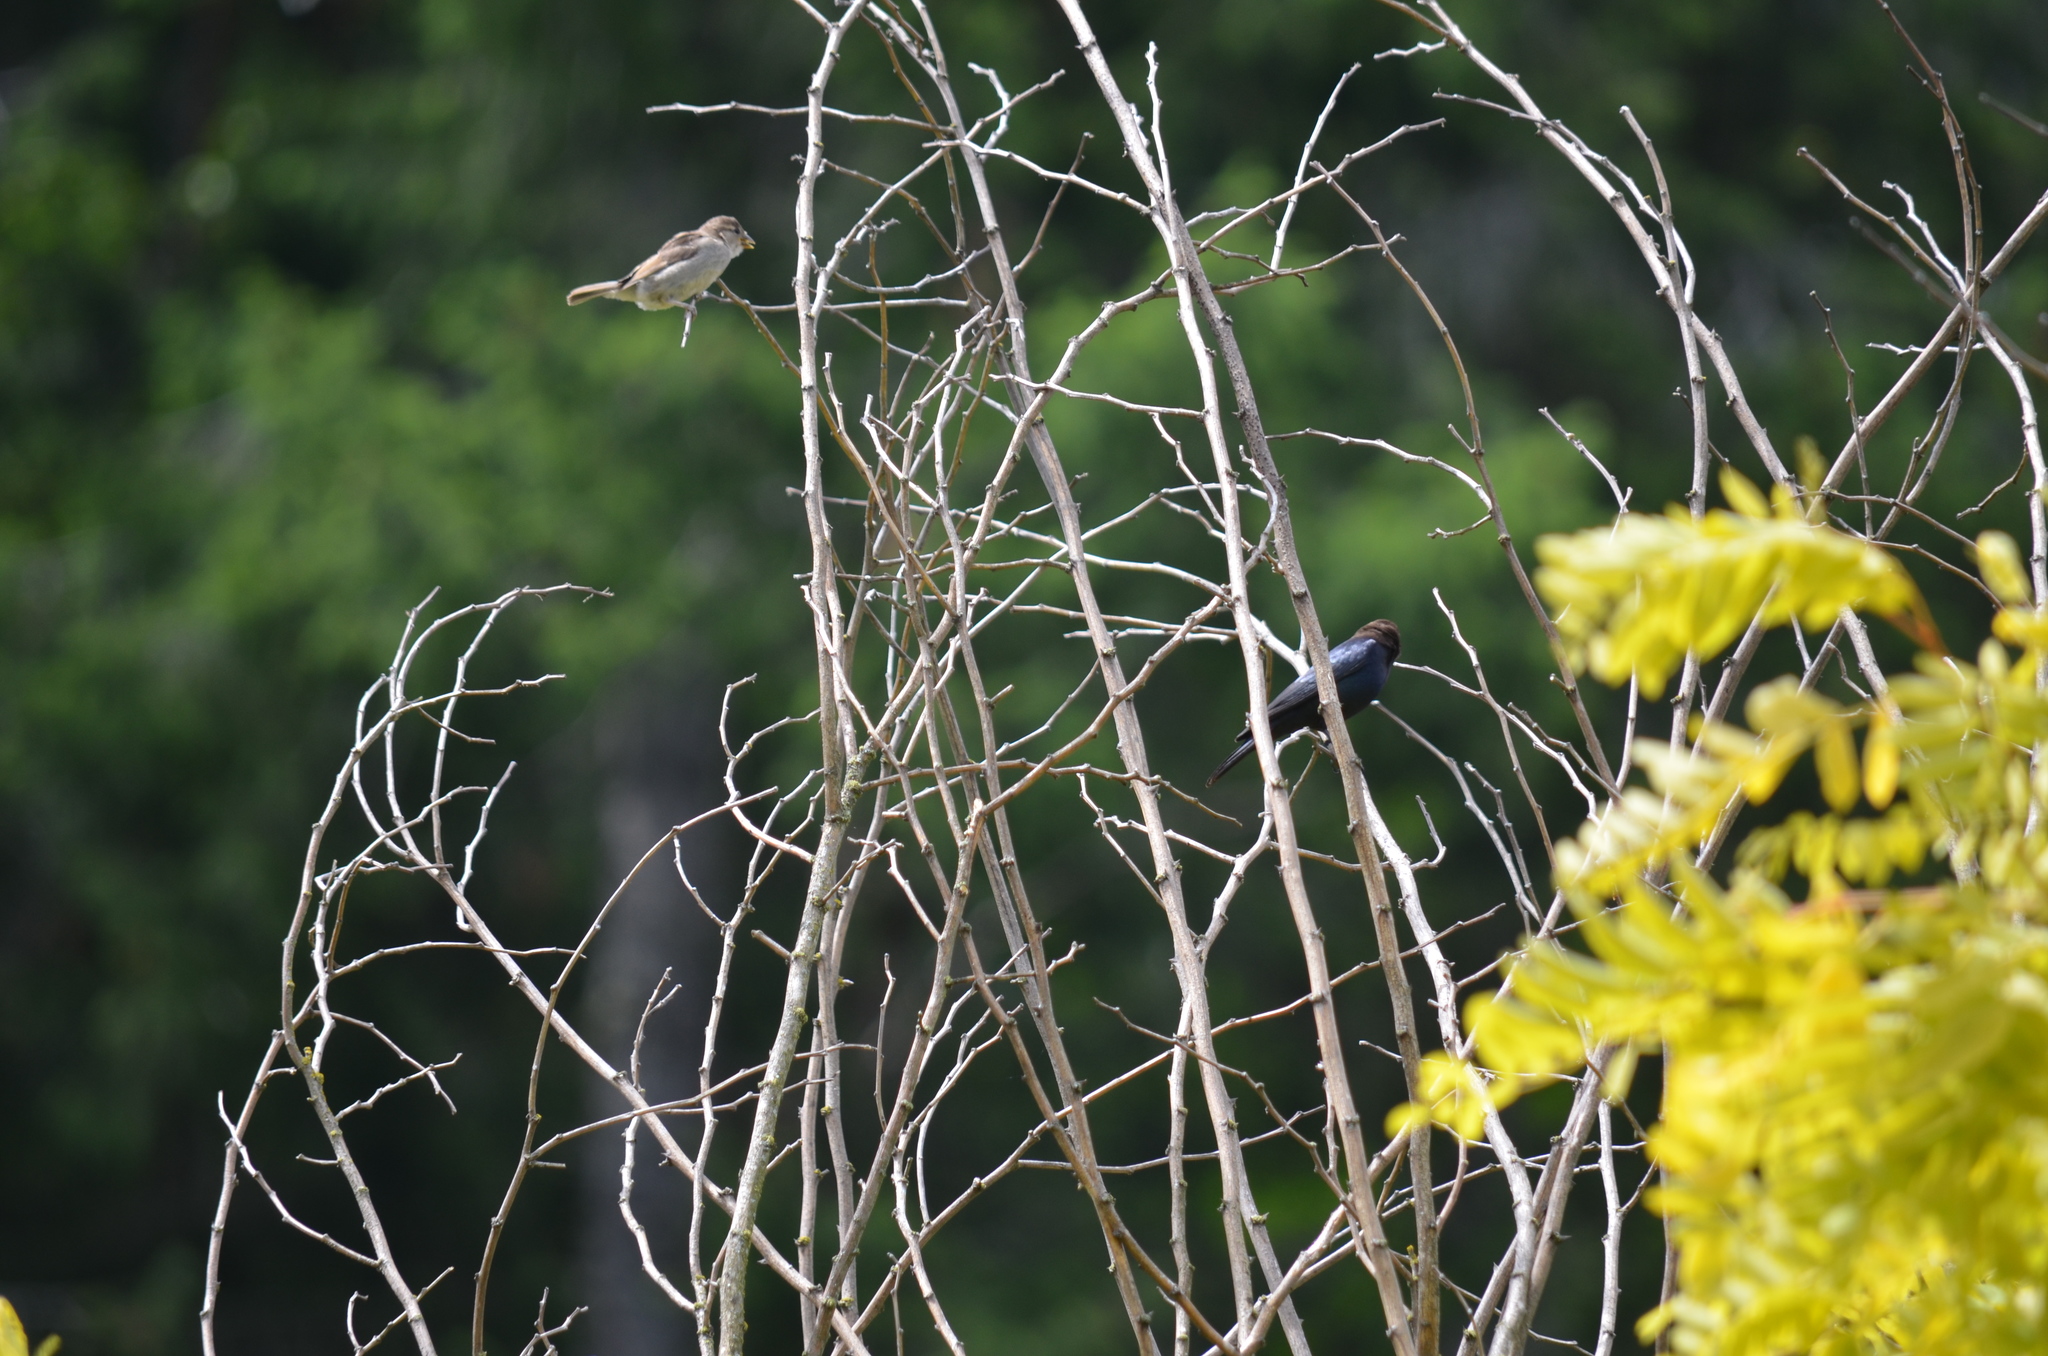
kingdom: Animalia
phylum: Chordata
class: Aves
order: Passeriformes
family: Passeridae
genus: Passer
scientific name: Passer domesticus
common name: House sparrow
